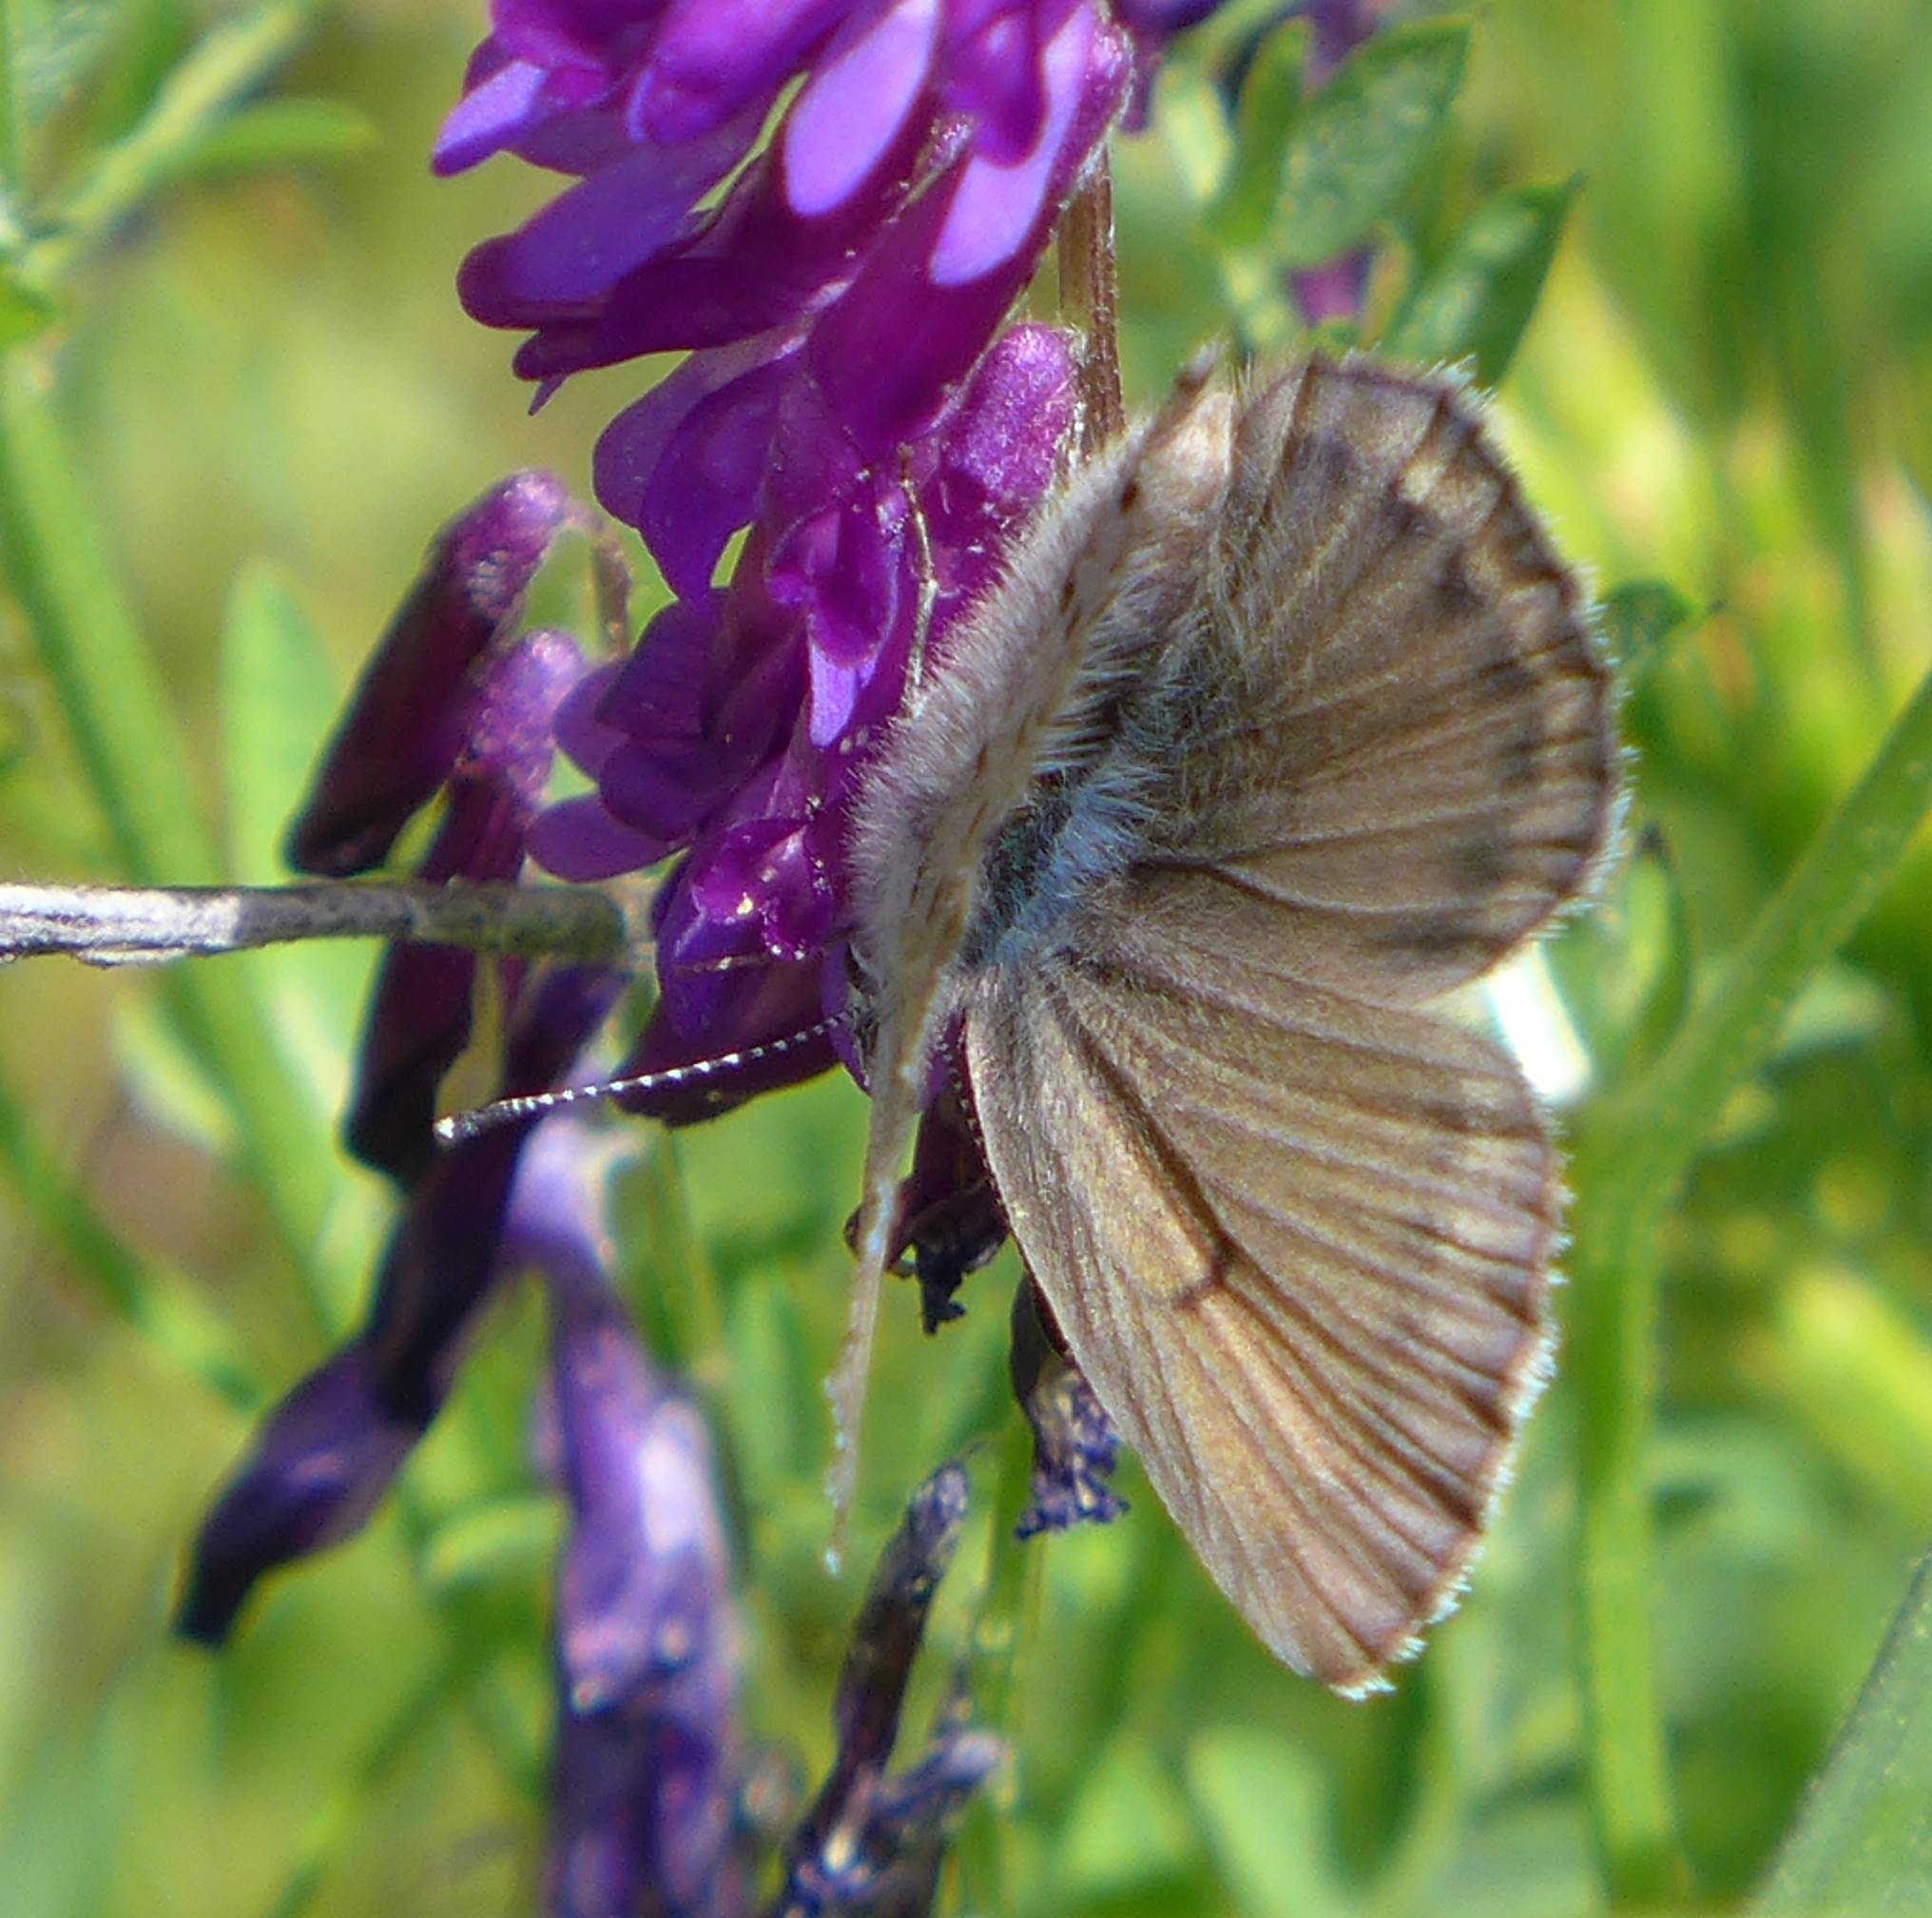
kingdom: Animalia
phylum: Arthropoda
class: Insecta
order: Lepidoptera
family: Lycaenidae
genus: Icaricia
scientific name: Icaricia icarioides
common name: Boisduval's blue
